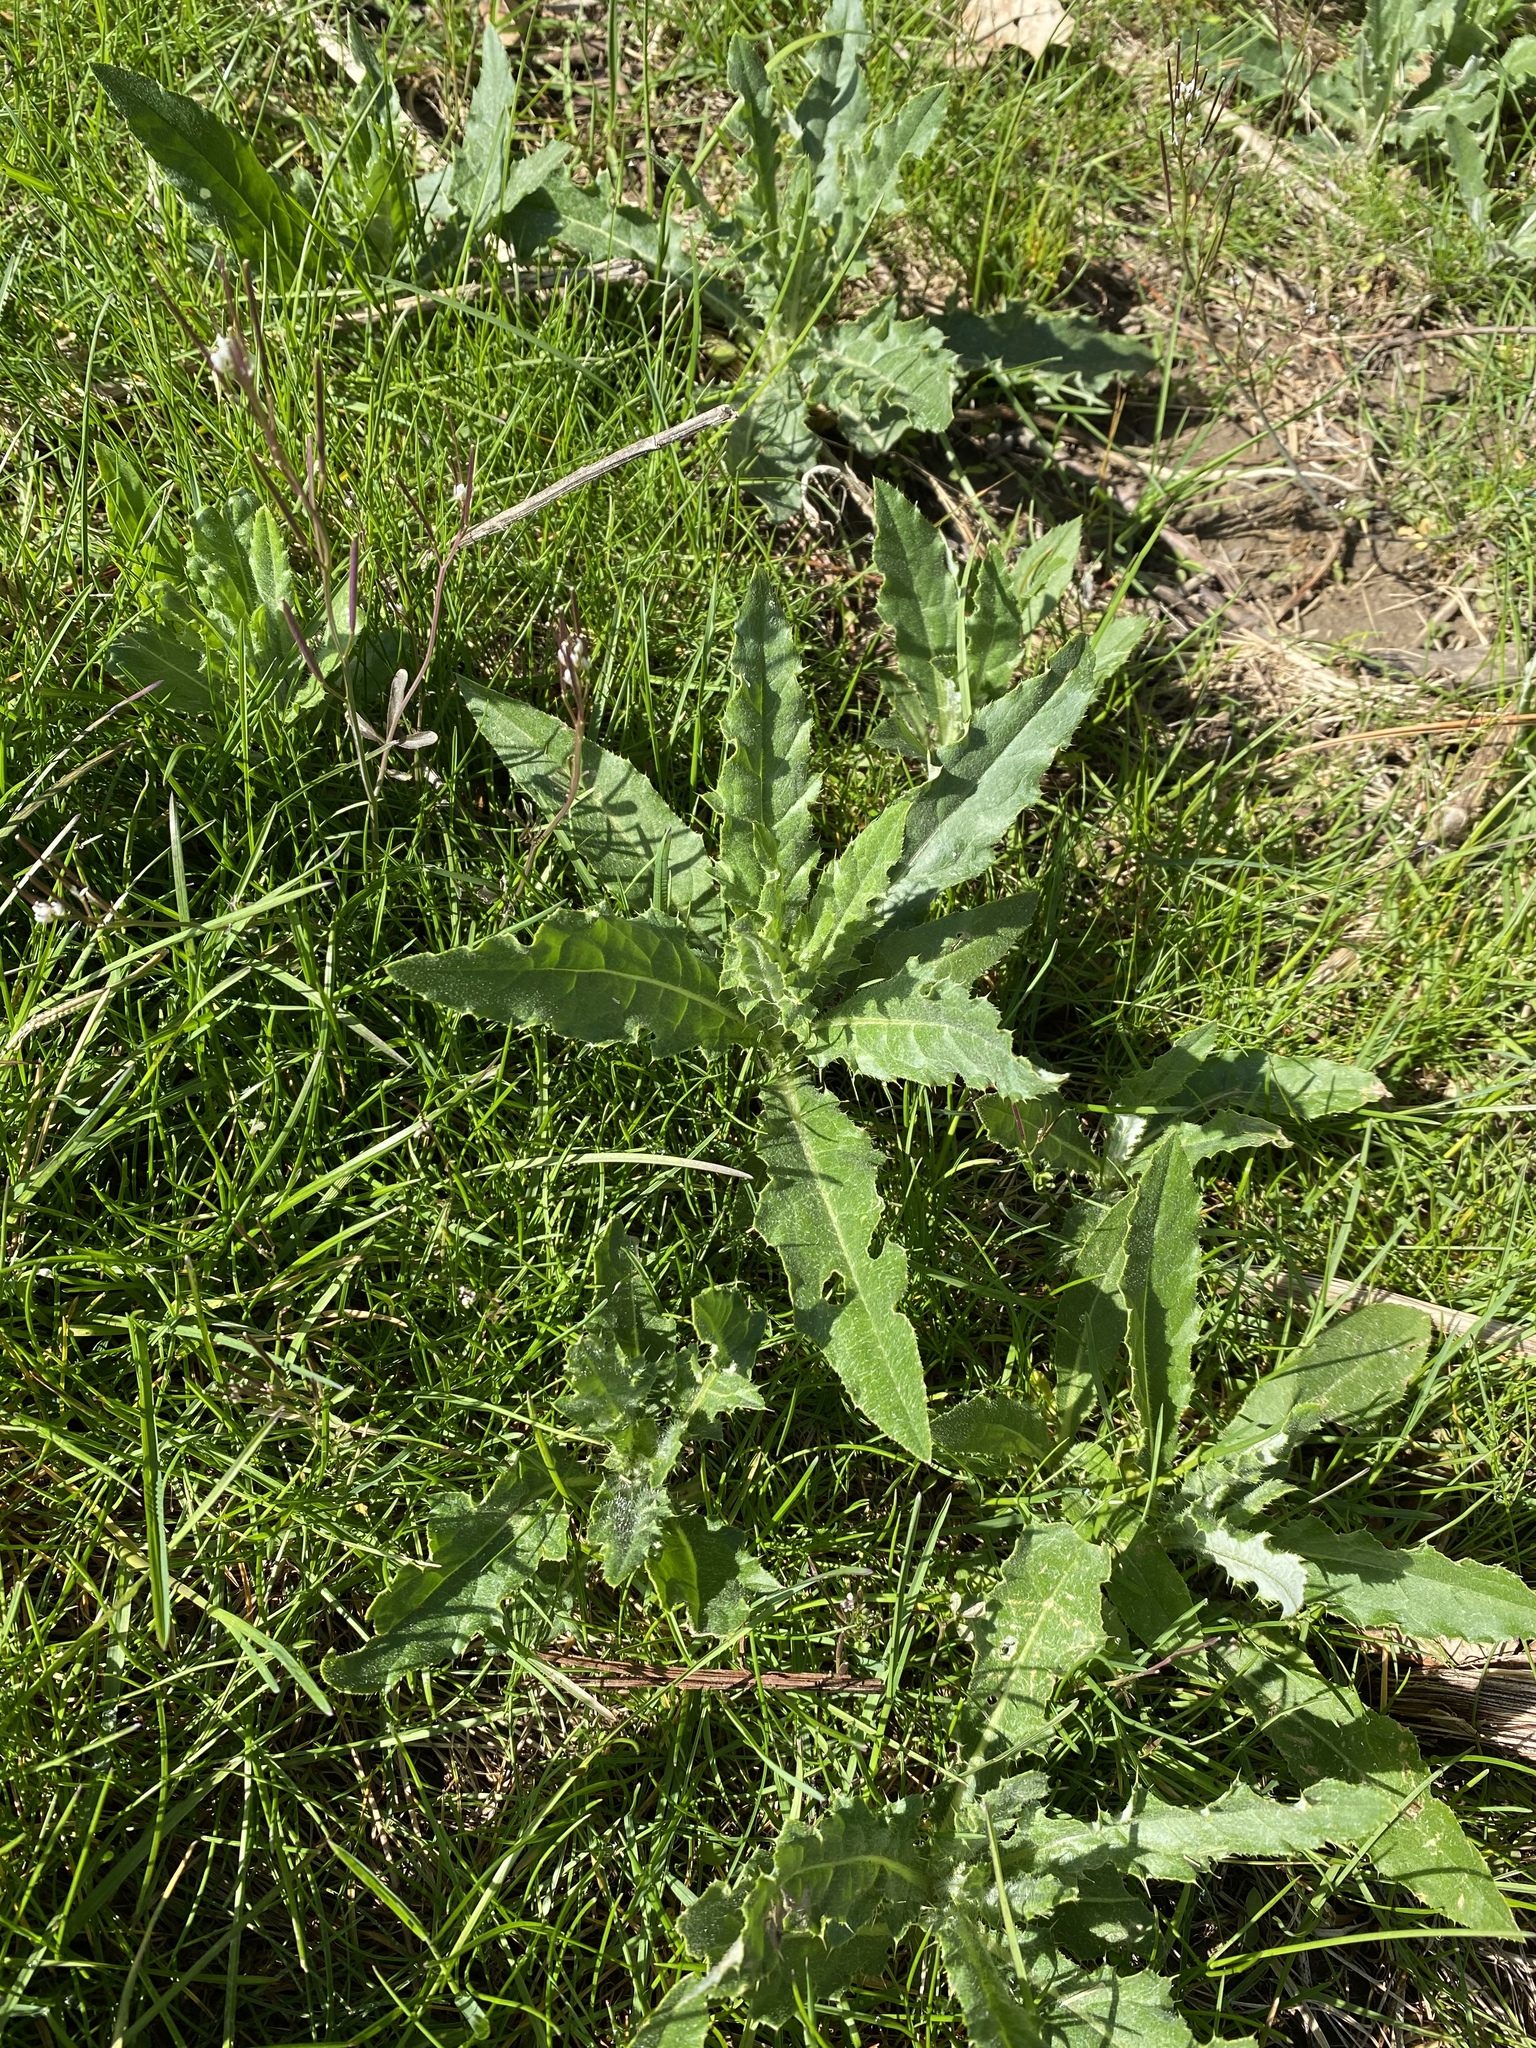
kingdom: Plantae
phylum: Tracheophyta
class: Magnoliopsida
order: Asterales
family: Asteraceae
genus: Cirsium
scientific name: Cirsium arvense
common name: Creeping thistle
